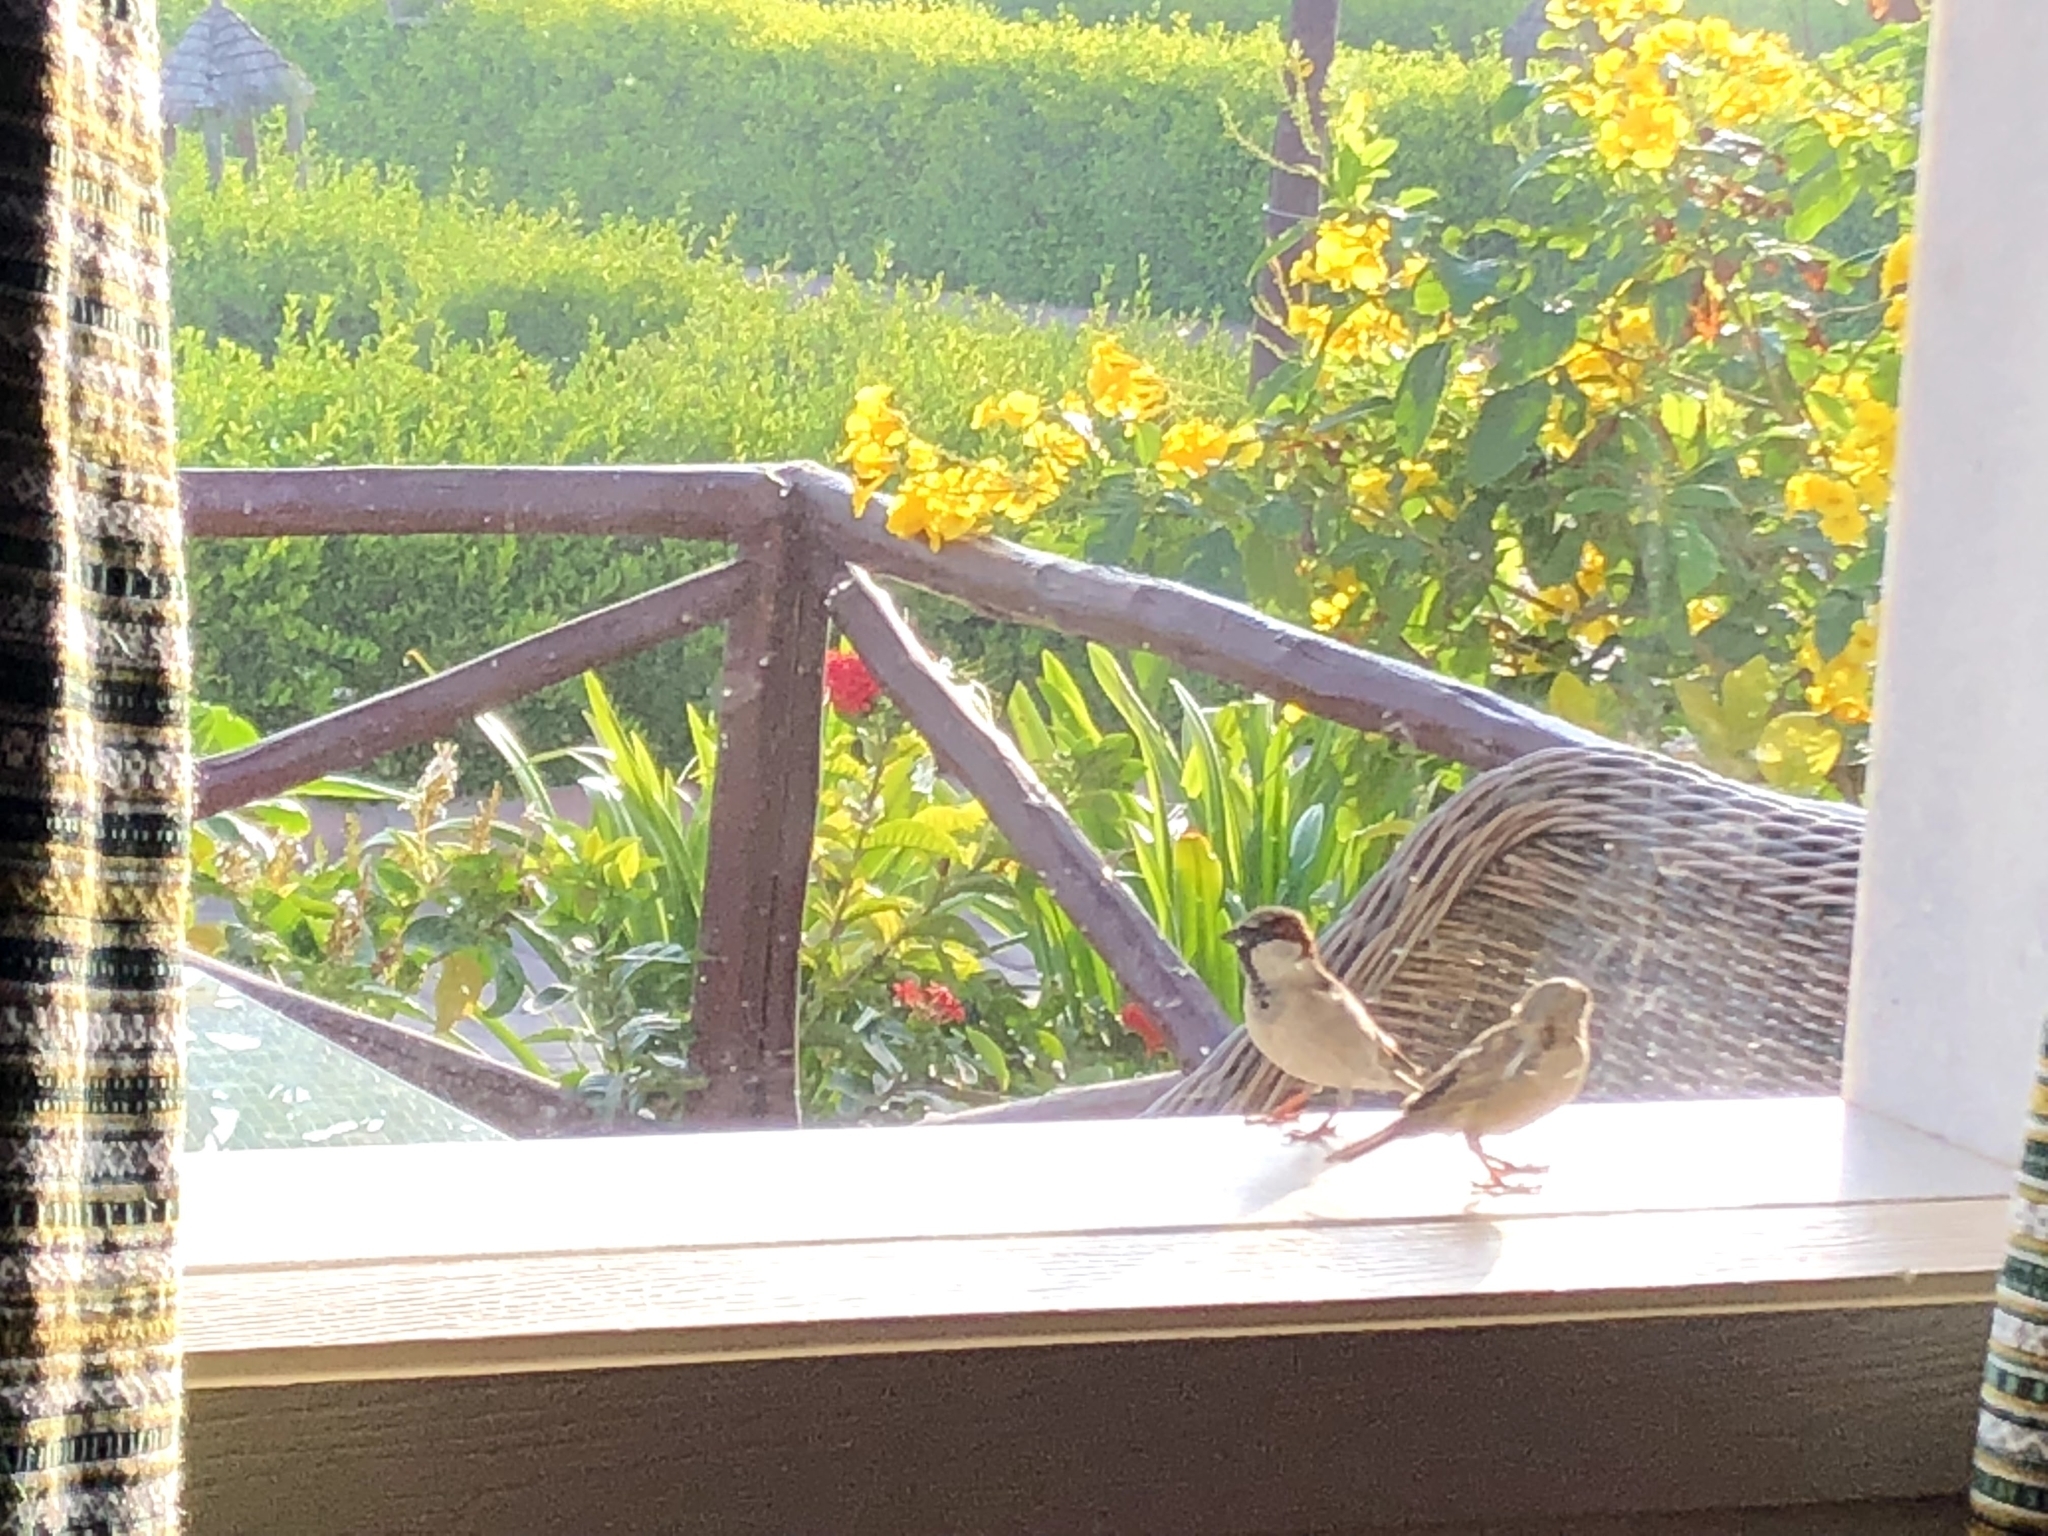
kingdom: Animalia
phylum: Chordata
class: Aves
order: Passeriformes
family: Passeridae
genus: Passer
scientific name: Passer domesticus
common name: House sparrow
